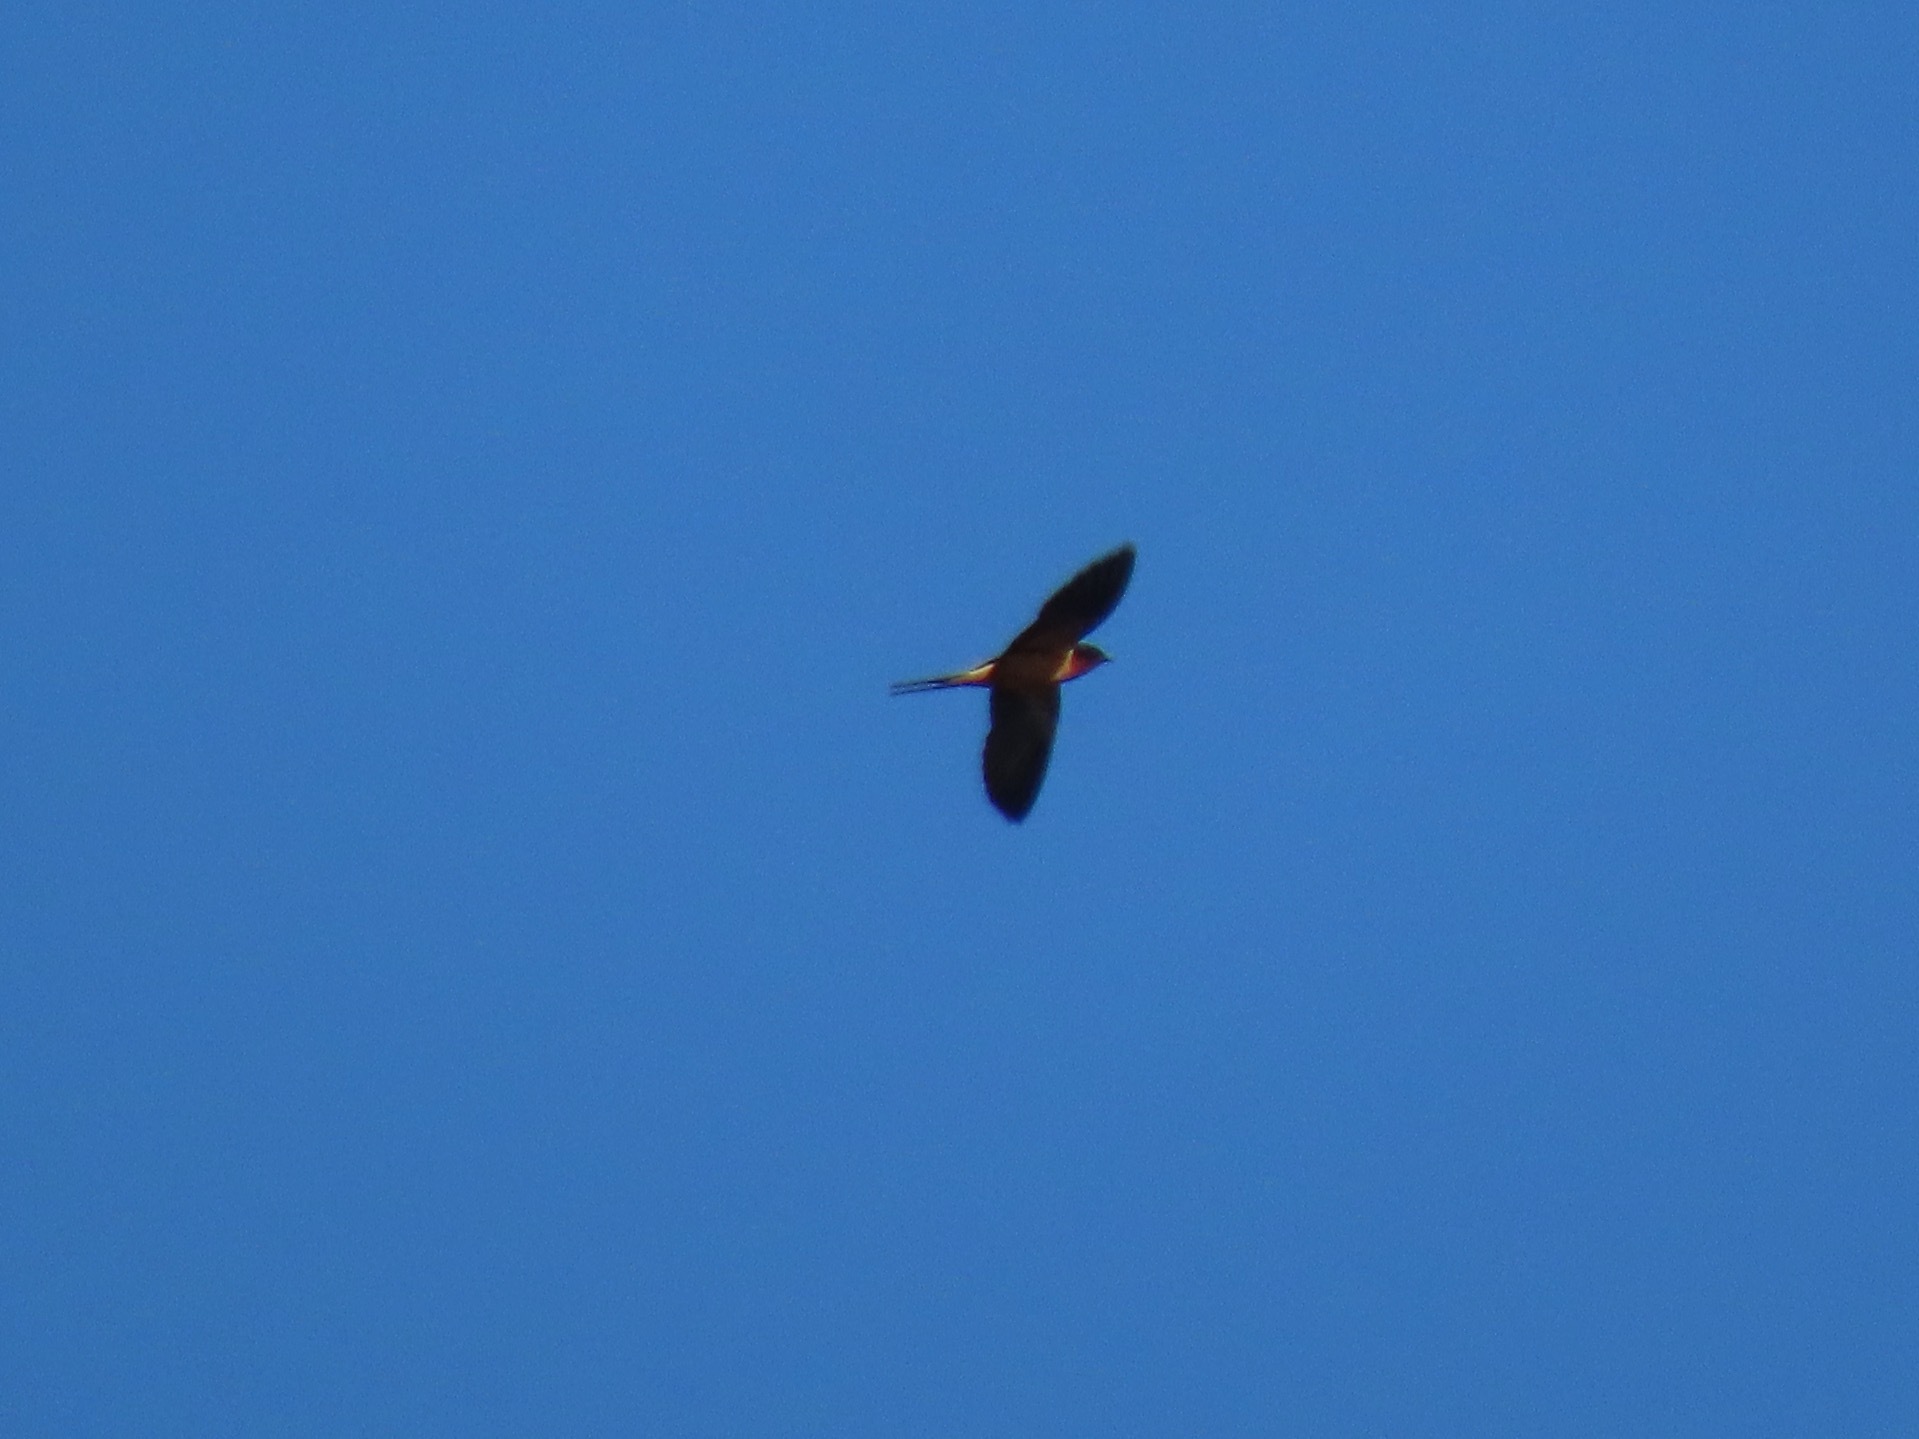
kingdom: Animalia
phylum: Chordata
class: Aves
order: Passeriformes
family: Hirundinidae
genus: Hirundo
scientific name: Hirundo rustica
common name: Barn swallow
